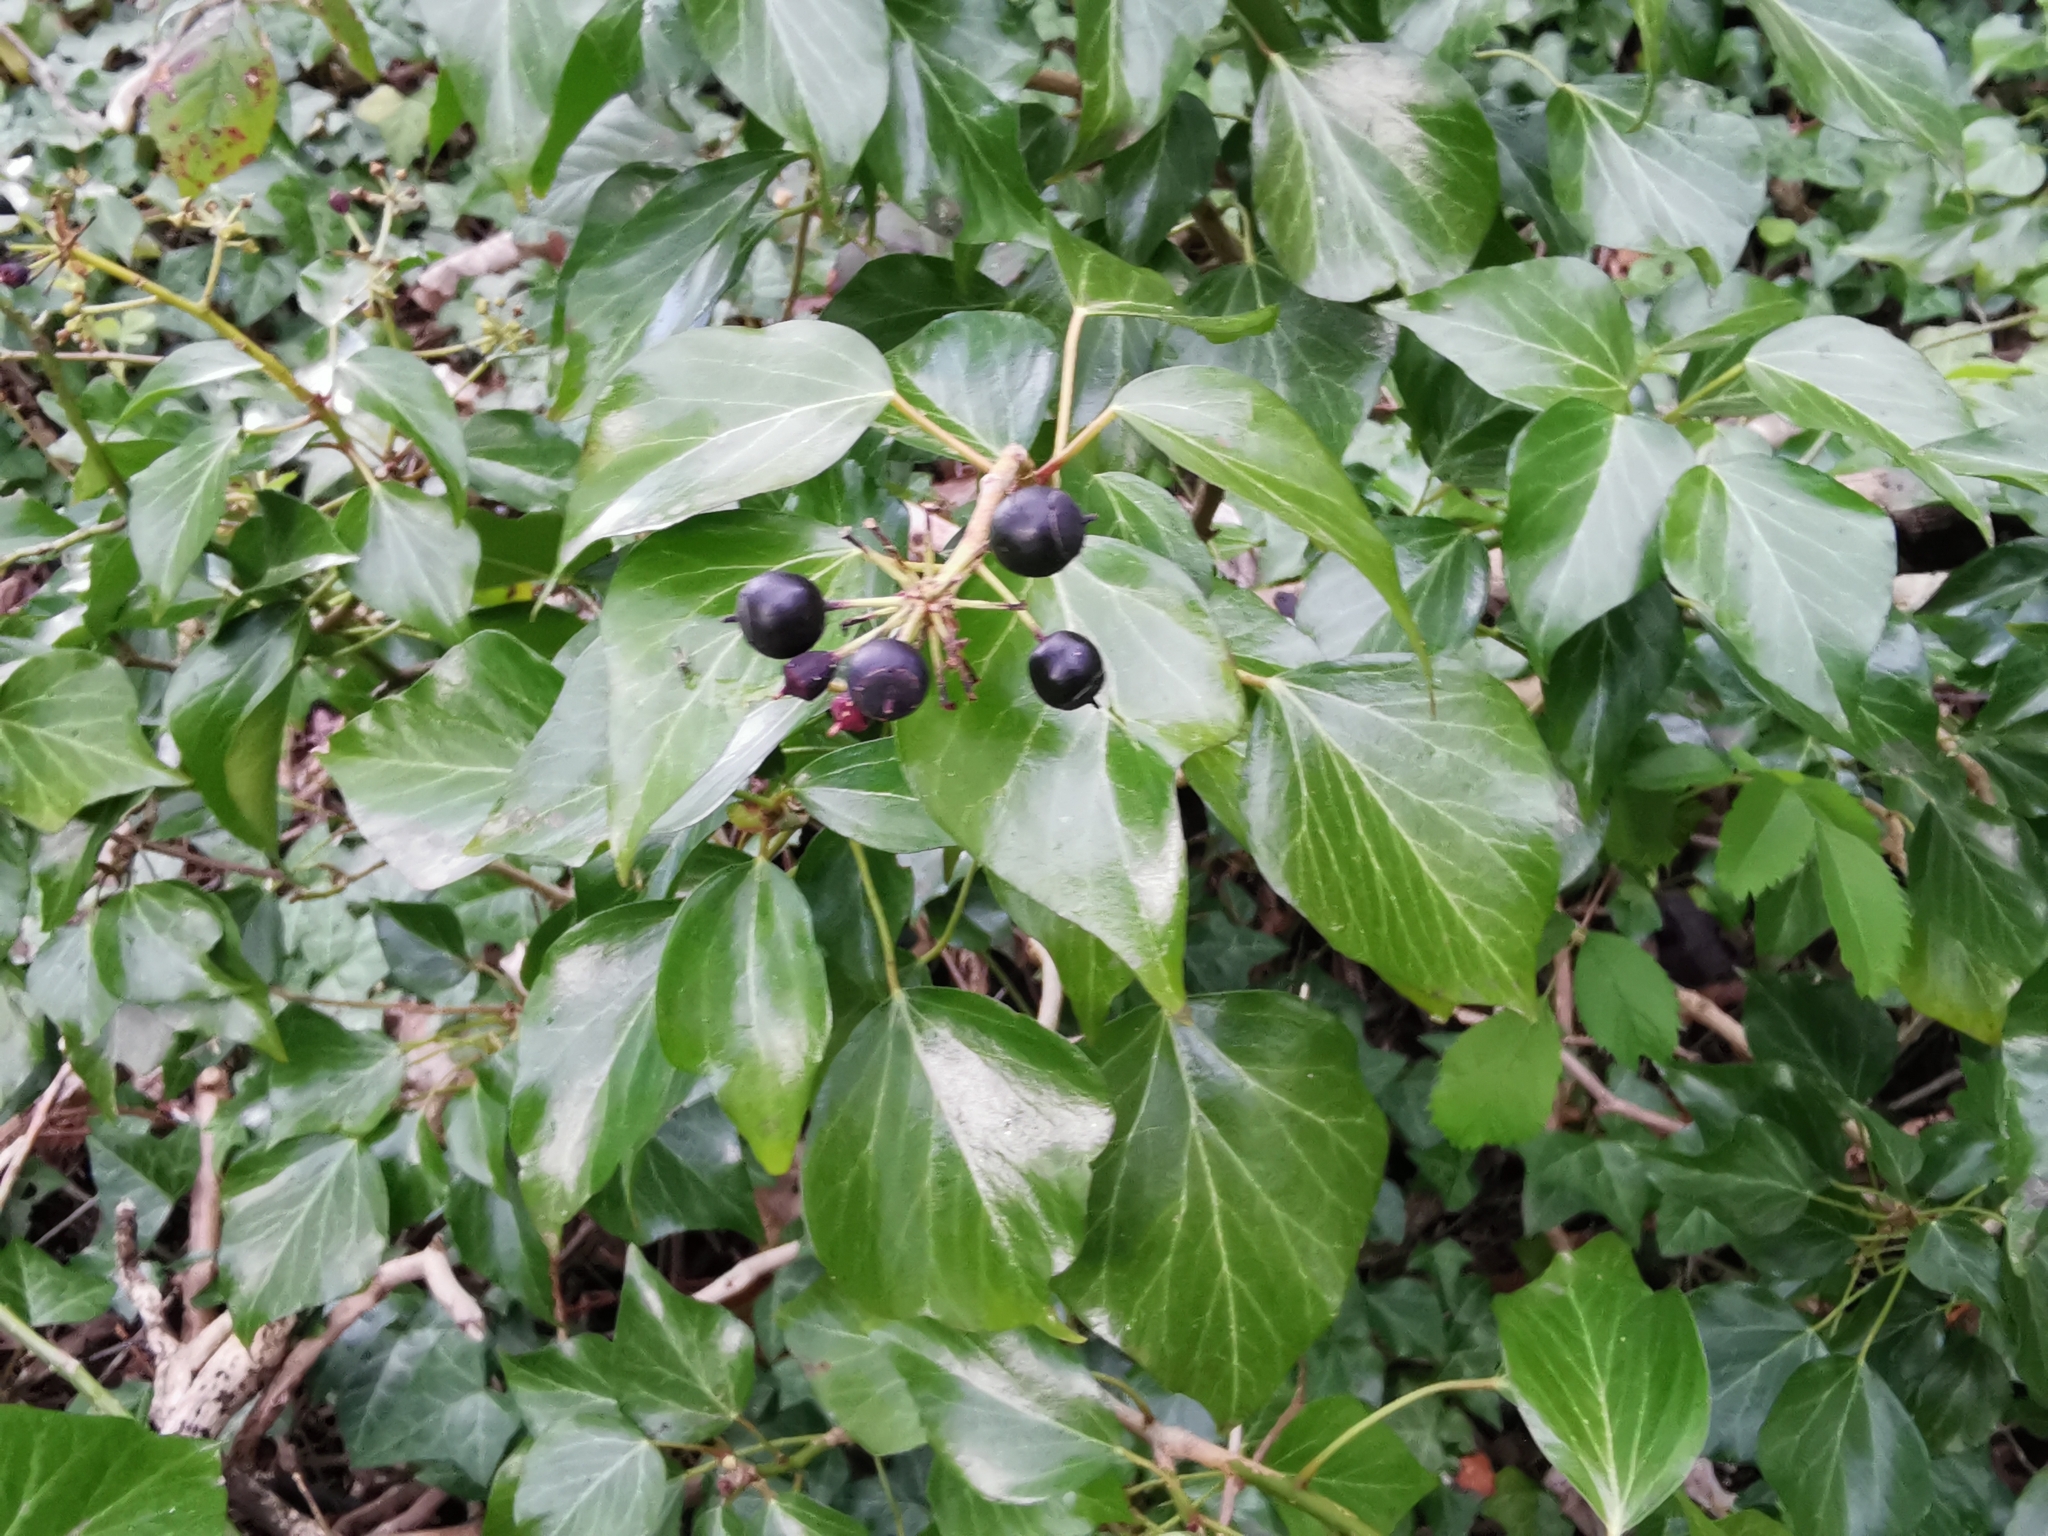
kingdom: Plantae
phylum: Tracheophyta
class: Magnoliopsida
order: Apiales
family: Araliaceae
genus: Hedera
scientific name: Hedera helix
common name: Ivy
